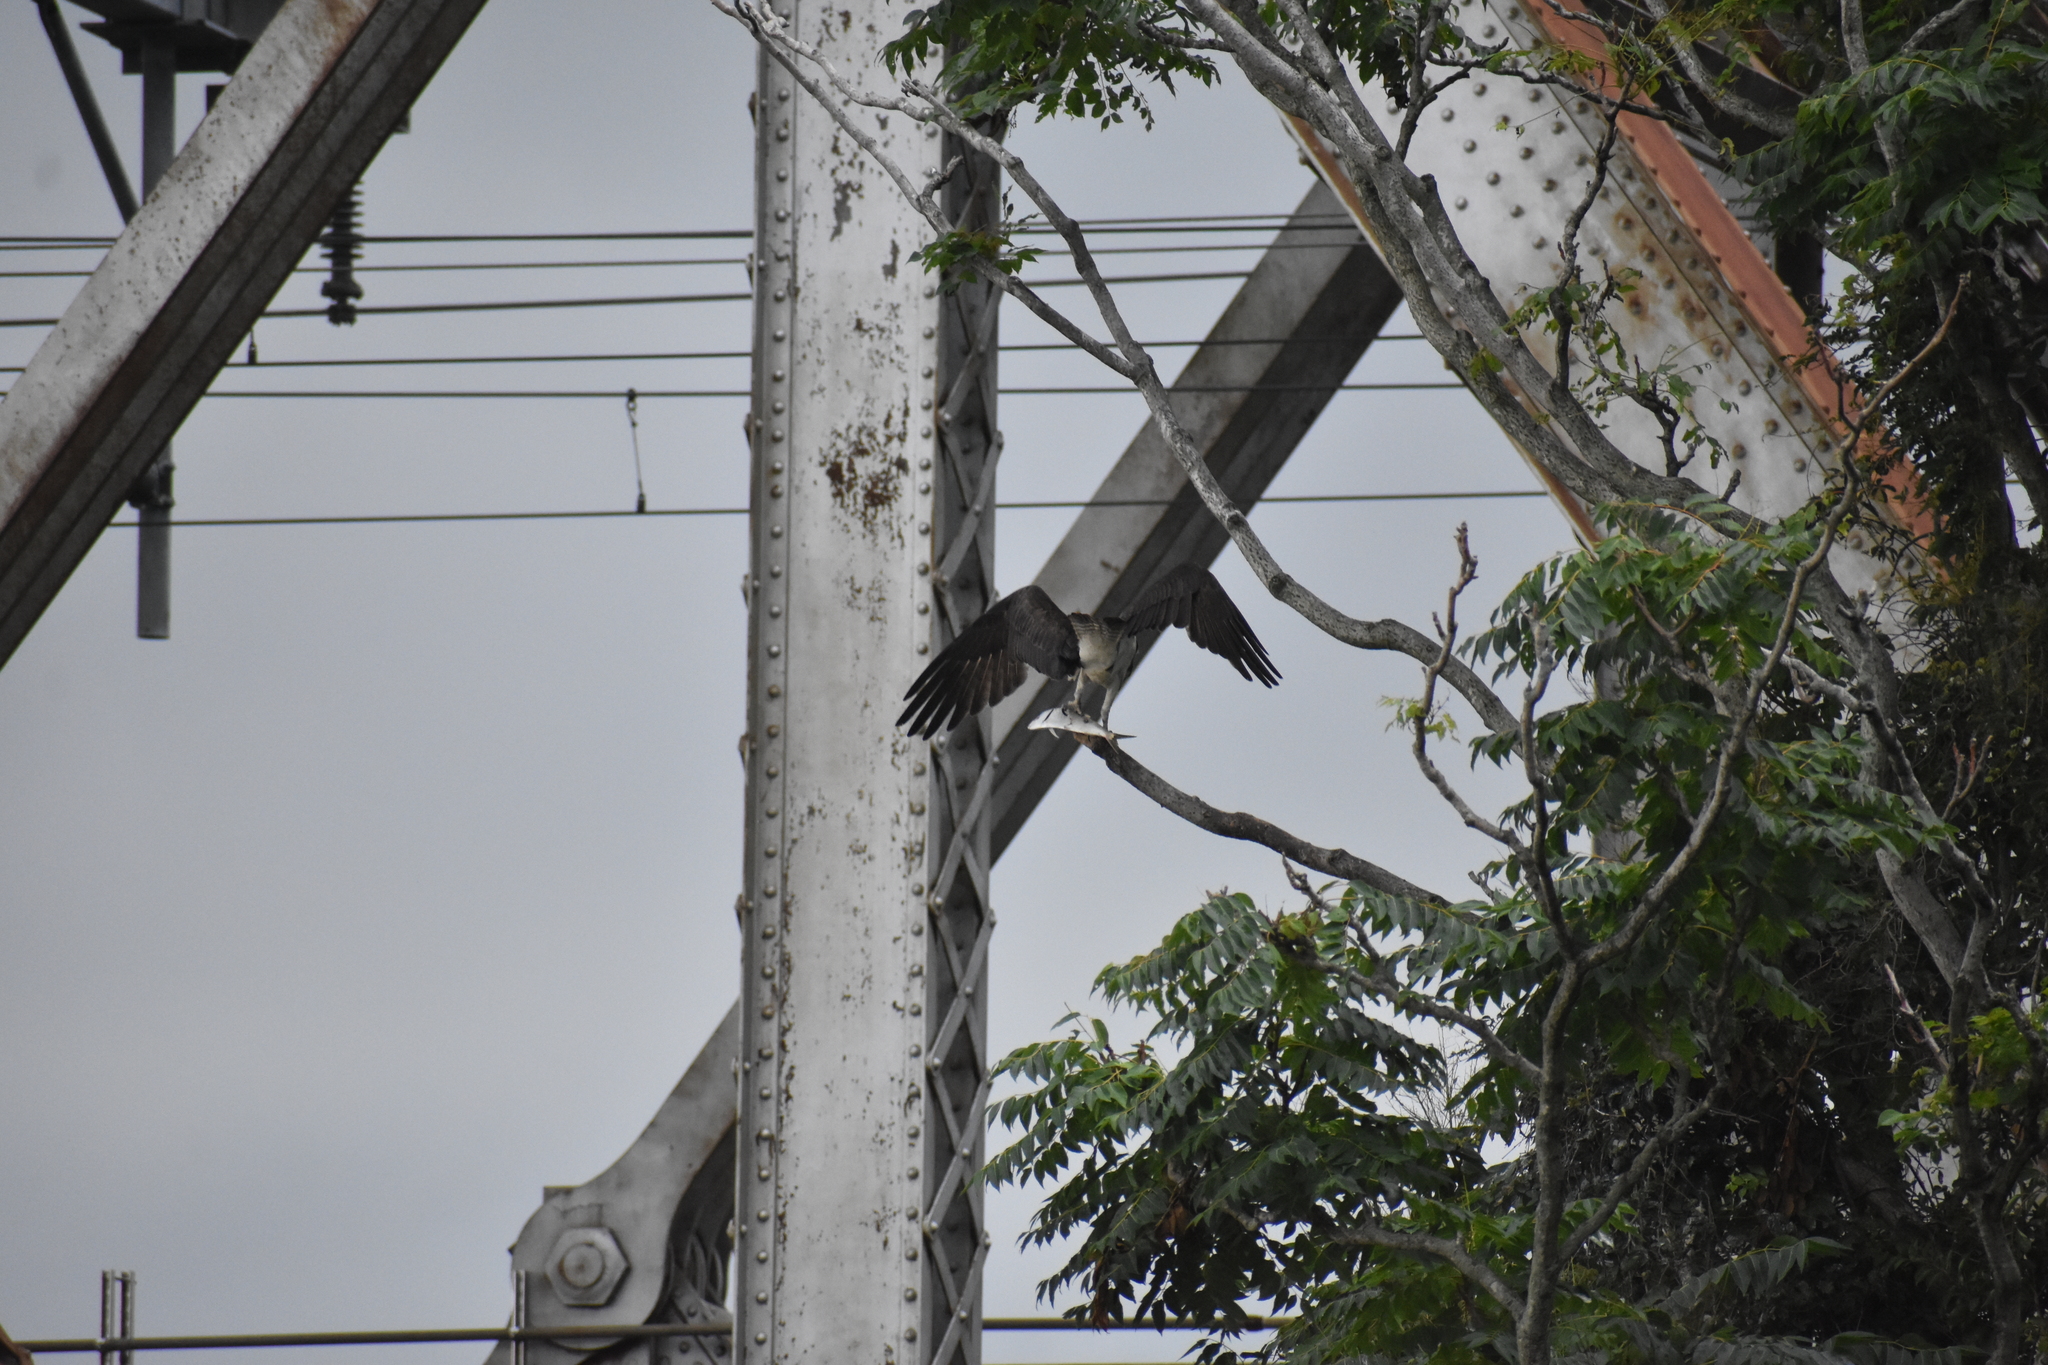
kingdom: Animalia
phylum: Chordata
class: Aves
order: Accipitriformes
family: Pandionidae
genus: Pandion
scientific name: Pandion haliaetus
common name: Osprey
